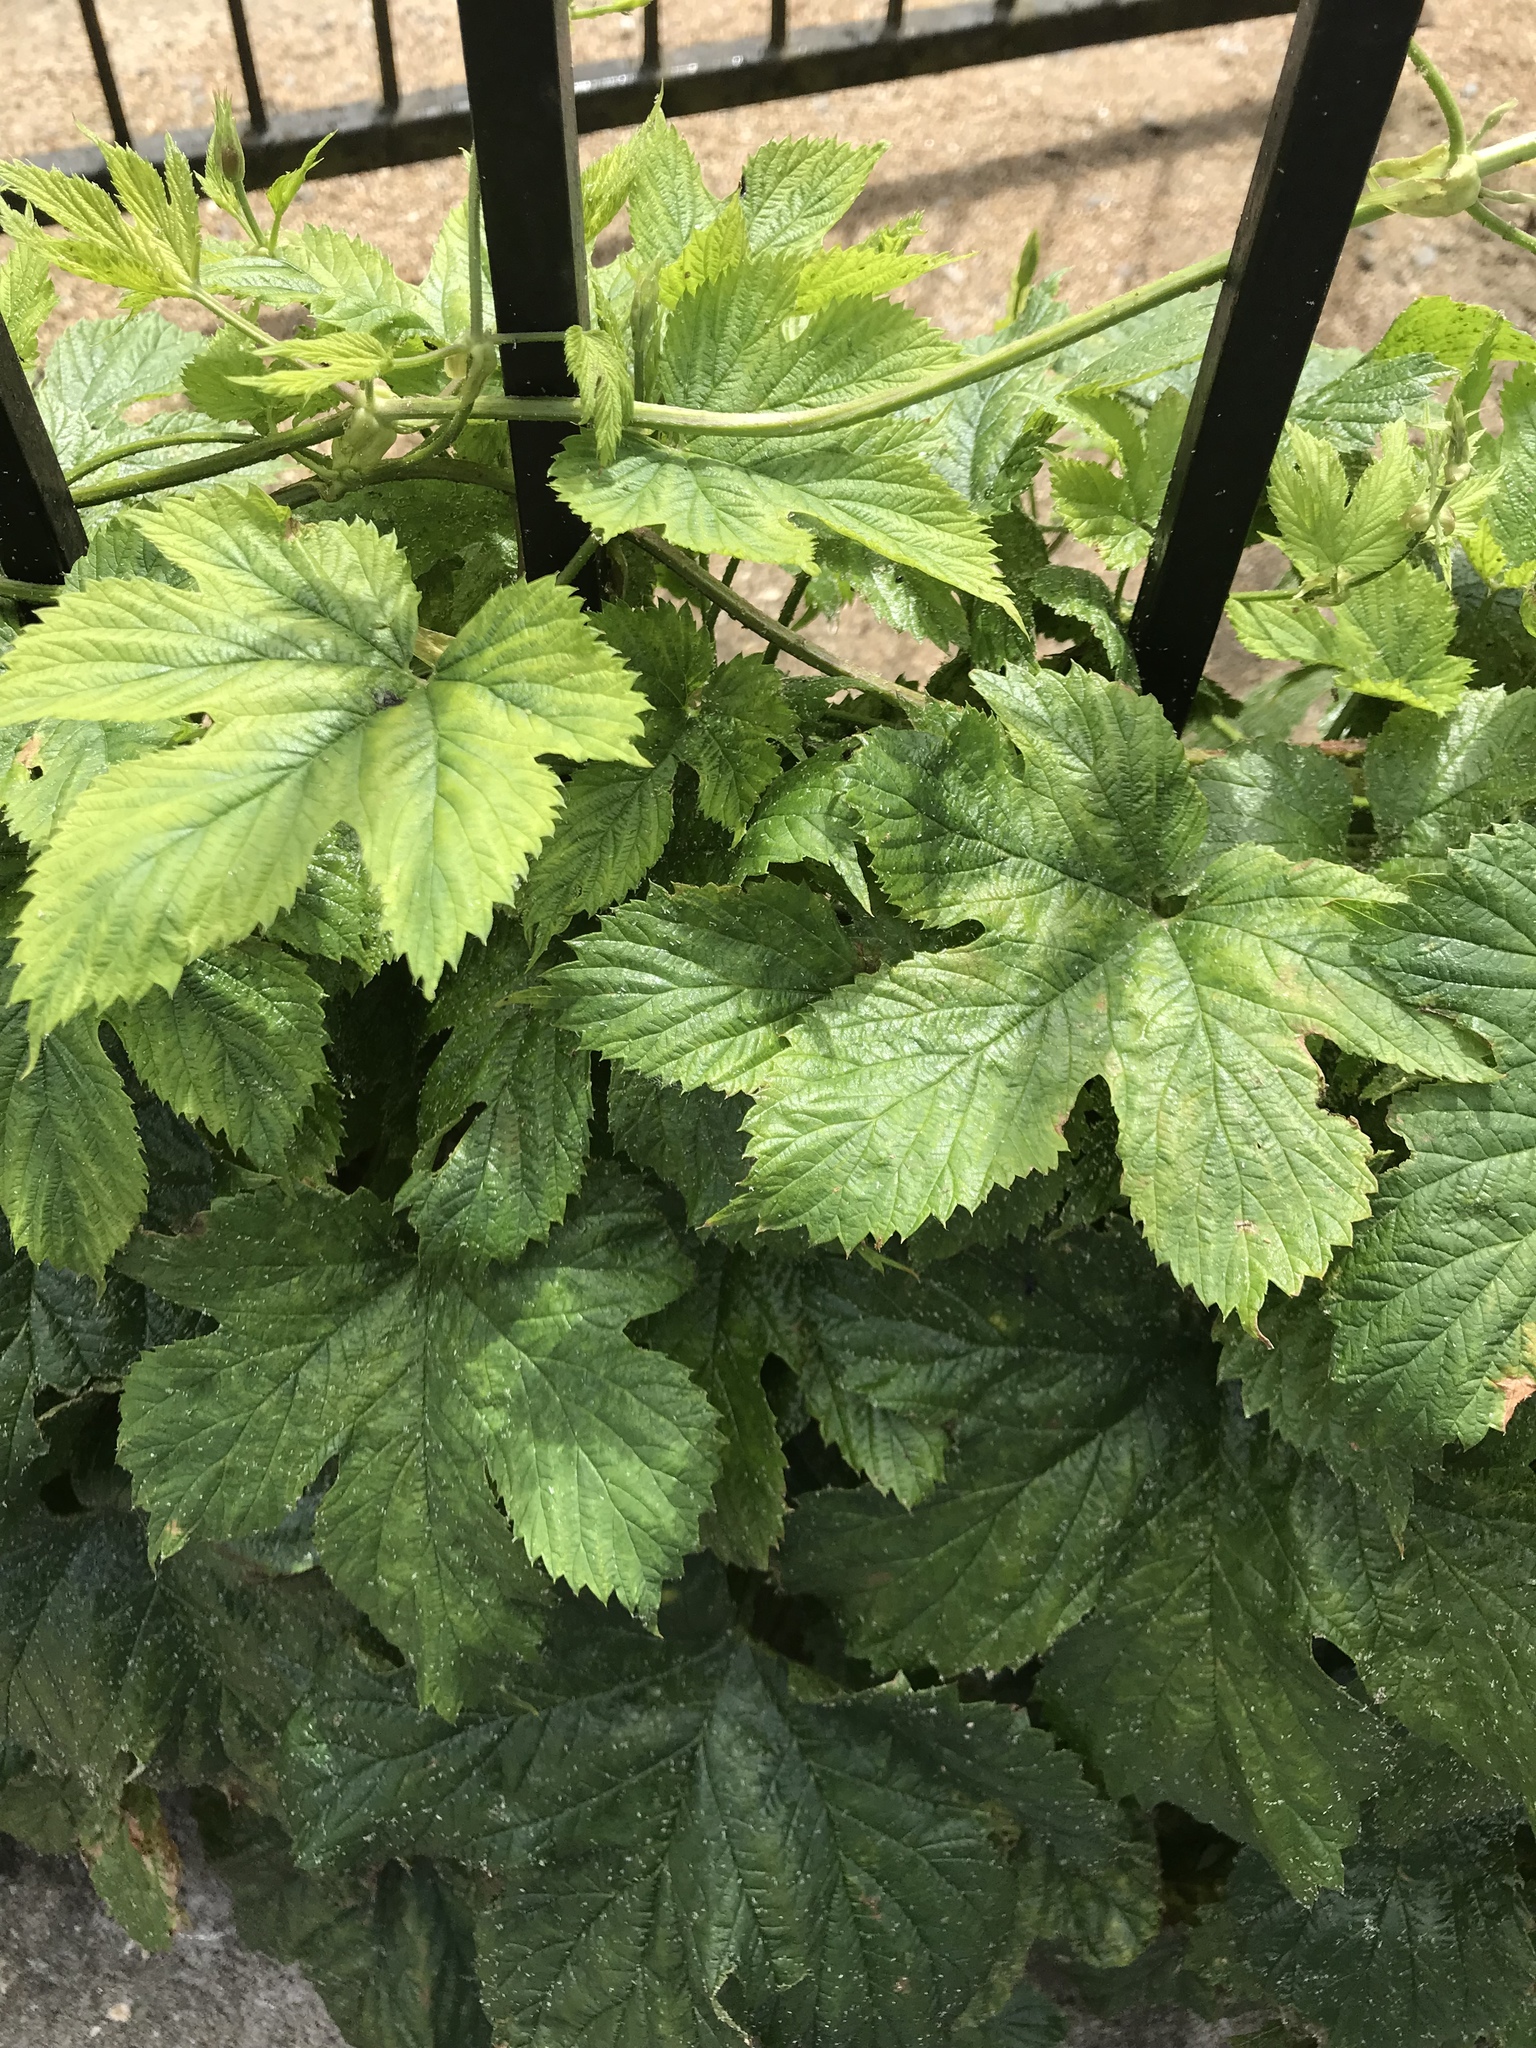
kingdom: Plantae
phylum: Tracheophyta
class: Magnoliopsida
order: Rosales
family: Cannabaceae
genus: Humulus
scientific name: Humulus lupulus
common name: Hop
